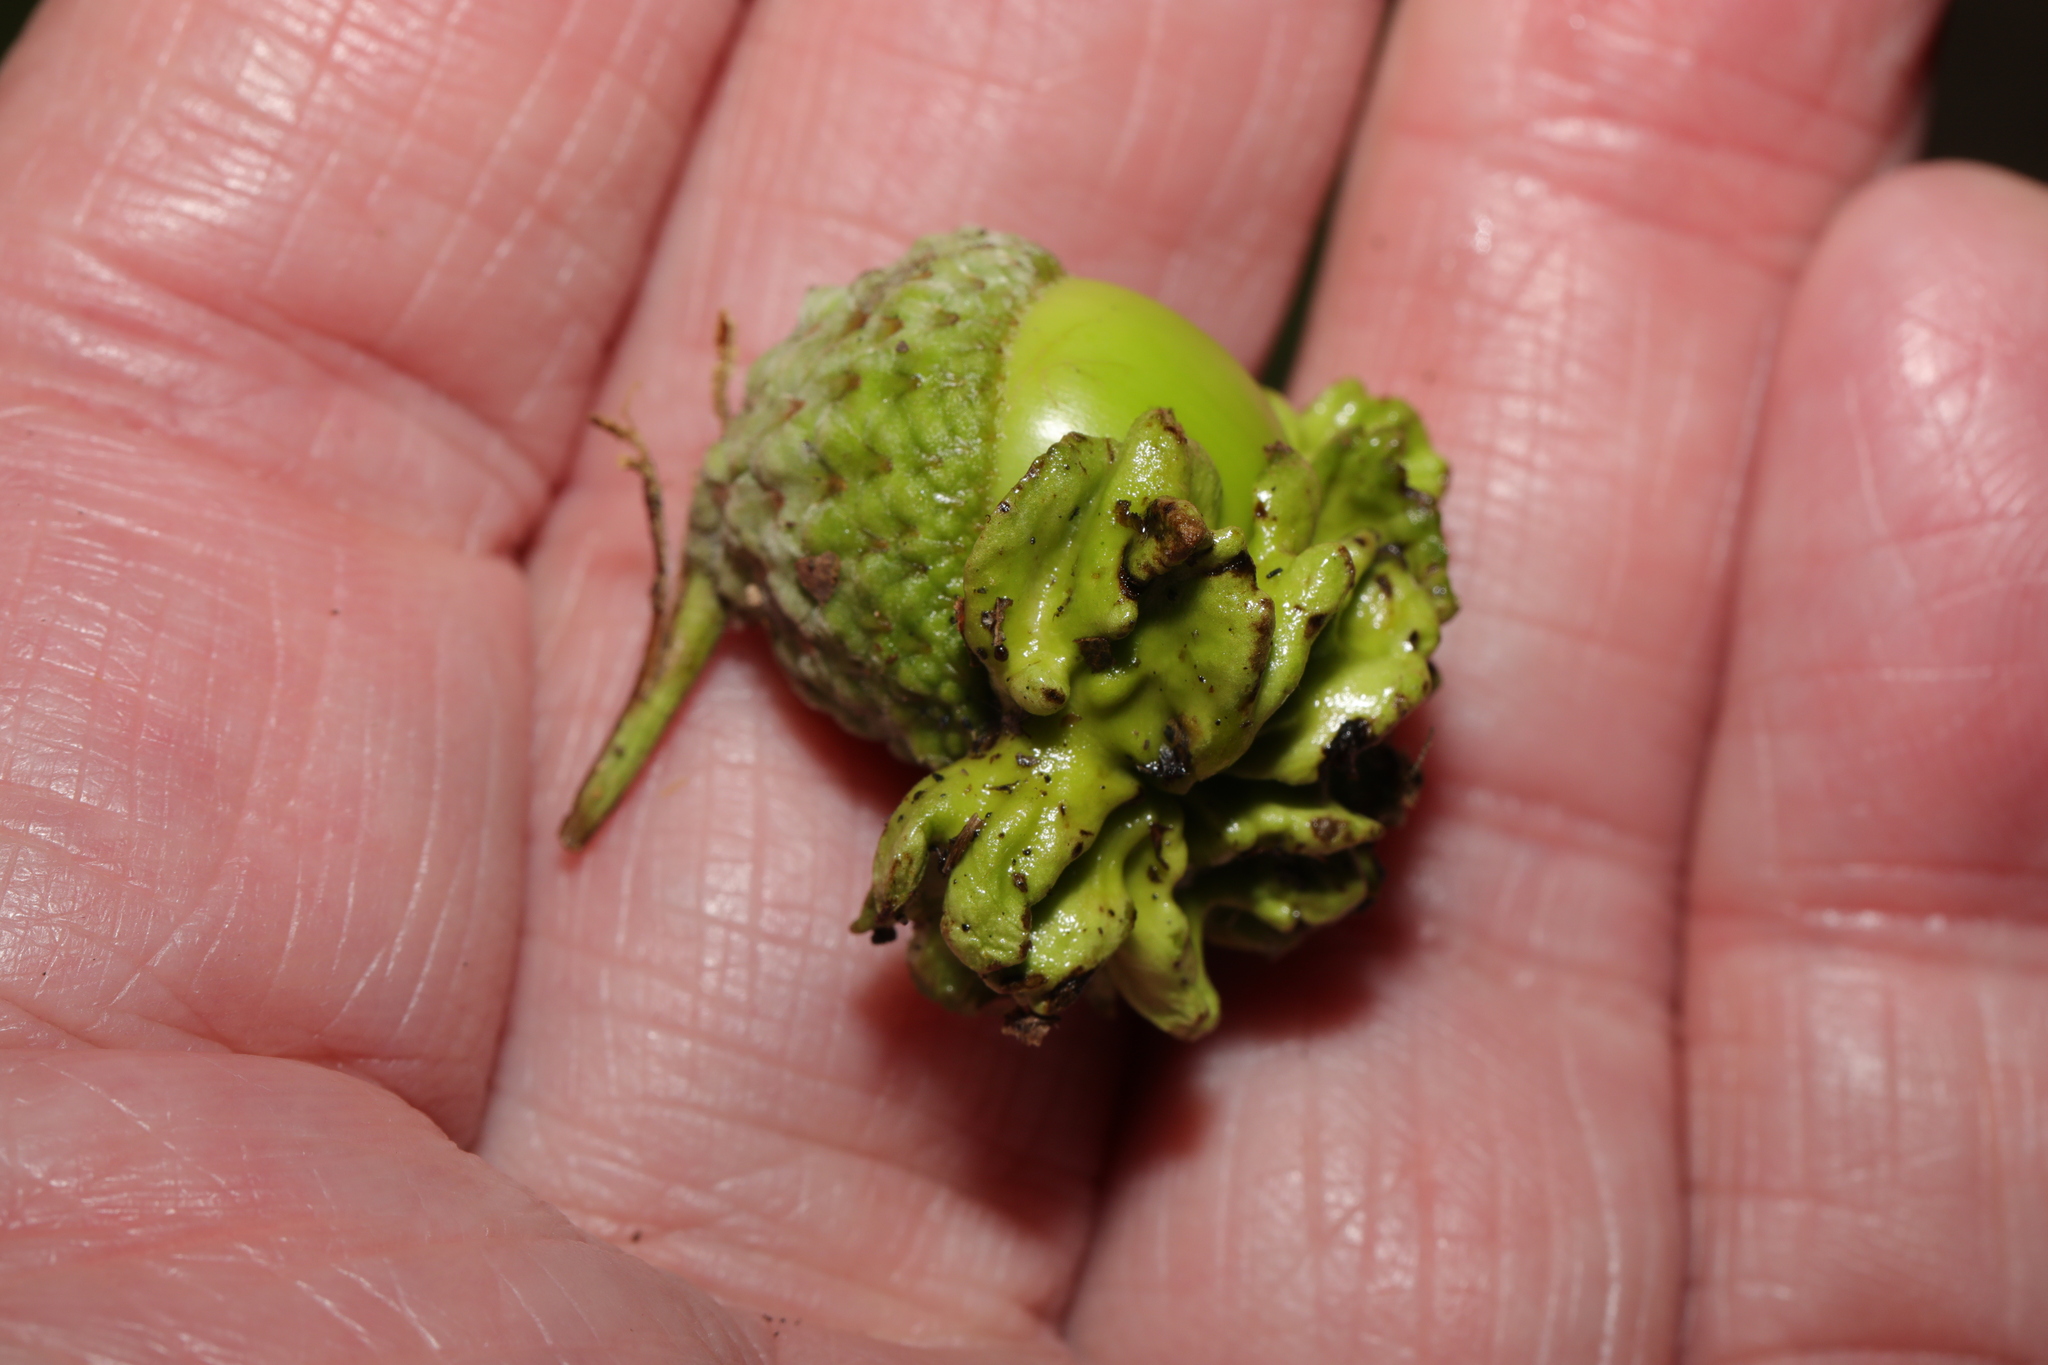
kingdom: Animalia
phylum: Arthropoda
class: Insecta
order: Hymenoptera
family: Cynipidae
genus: Andricus
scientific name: Andricus quercuscalicis
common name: Knopper gall
